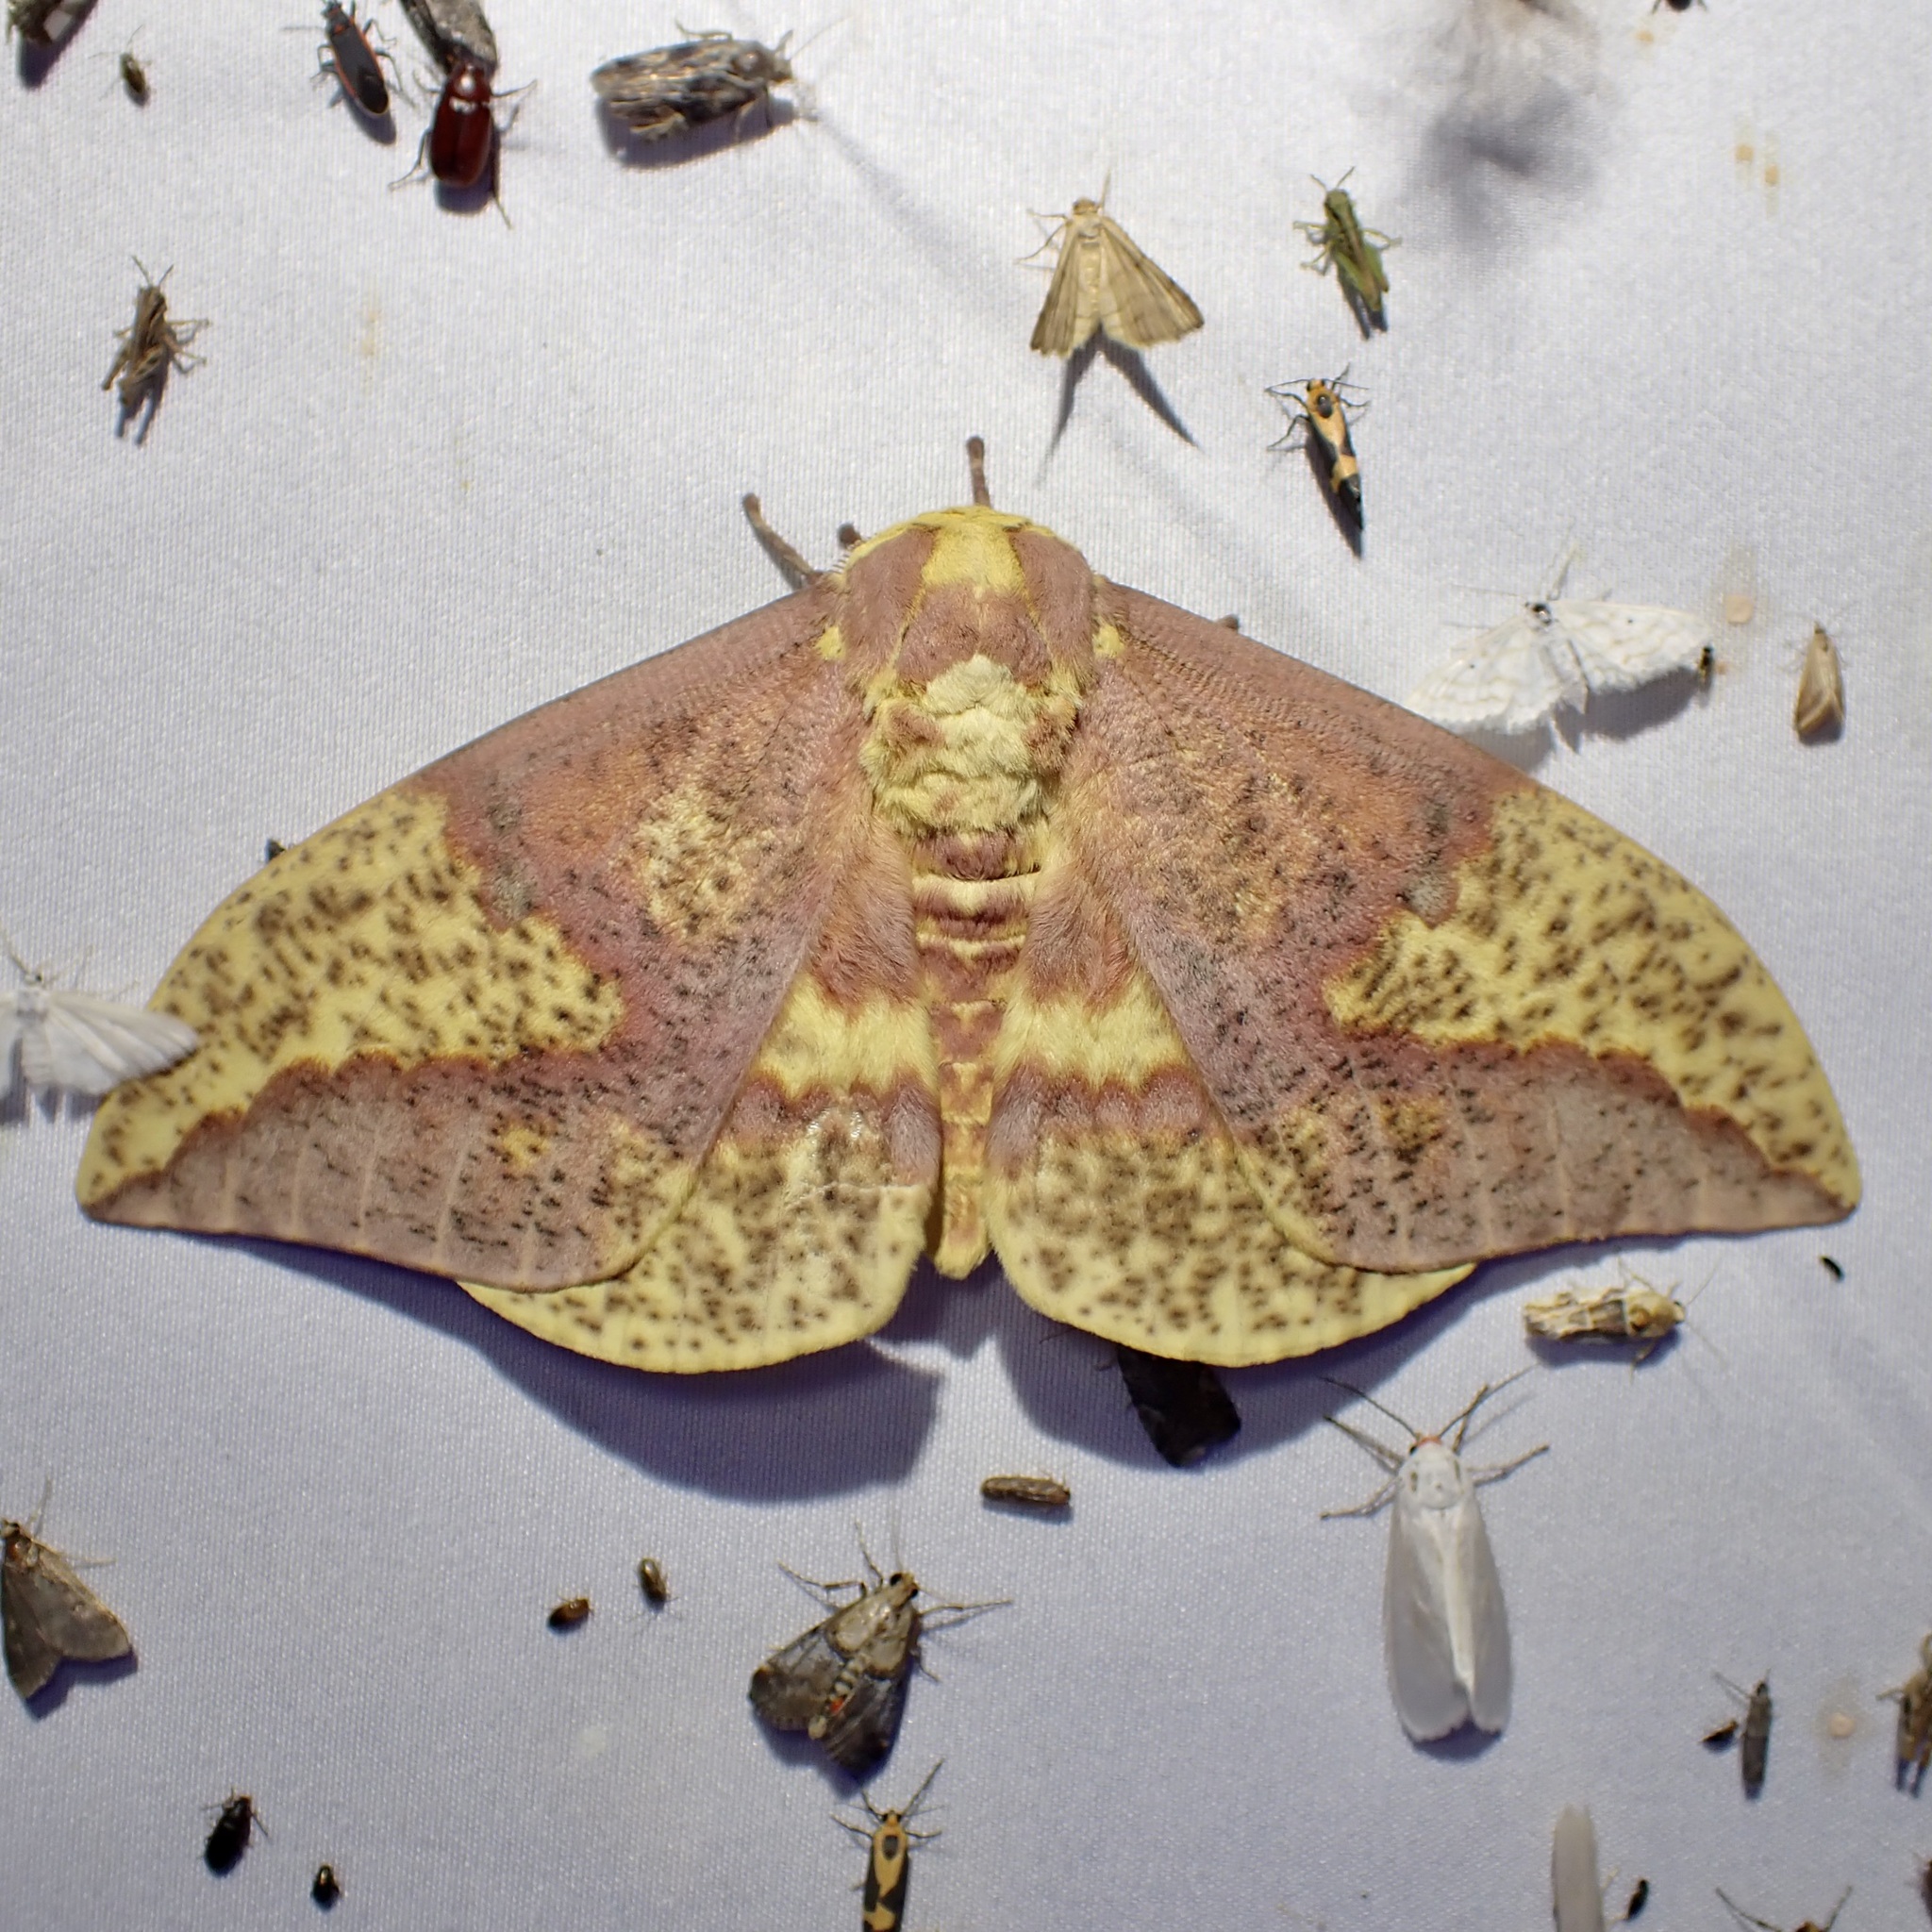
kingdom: Animalia
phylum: Arthropoda
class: Insecta
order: Lepidoptera
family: Saturniidae
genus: Eacles
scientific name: Eacles oslari
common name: Oslar's imperial moth
